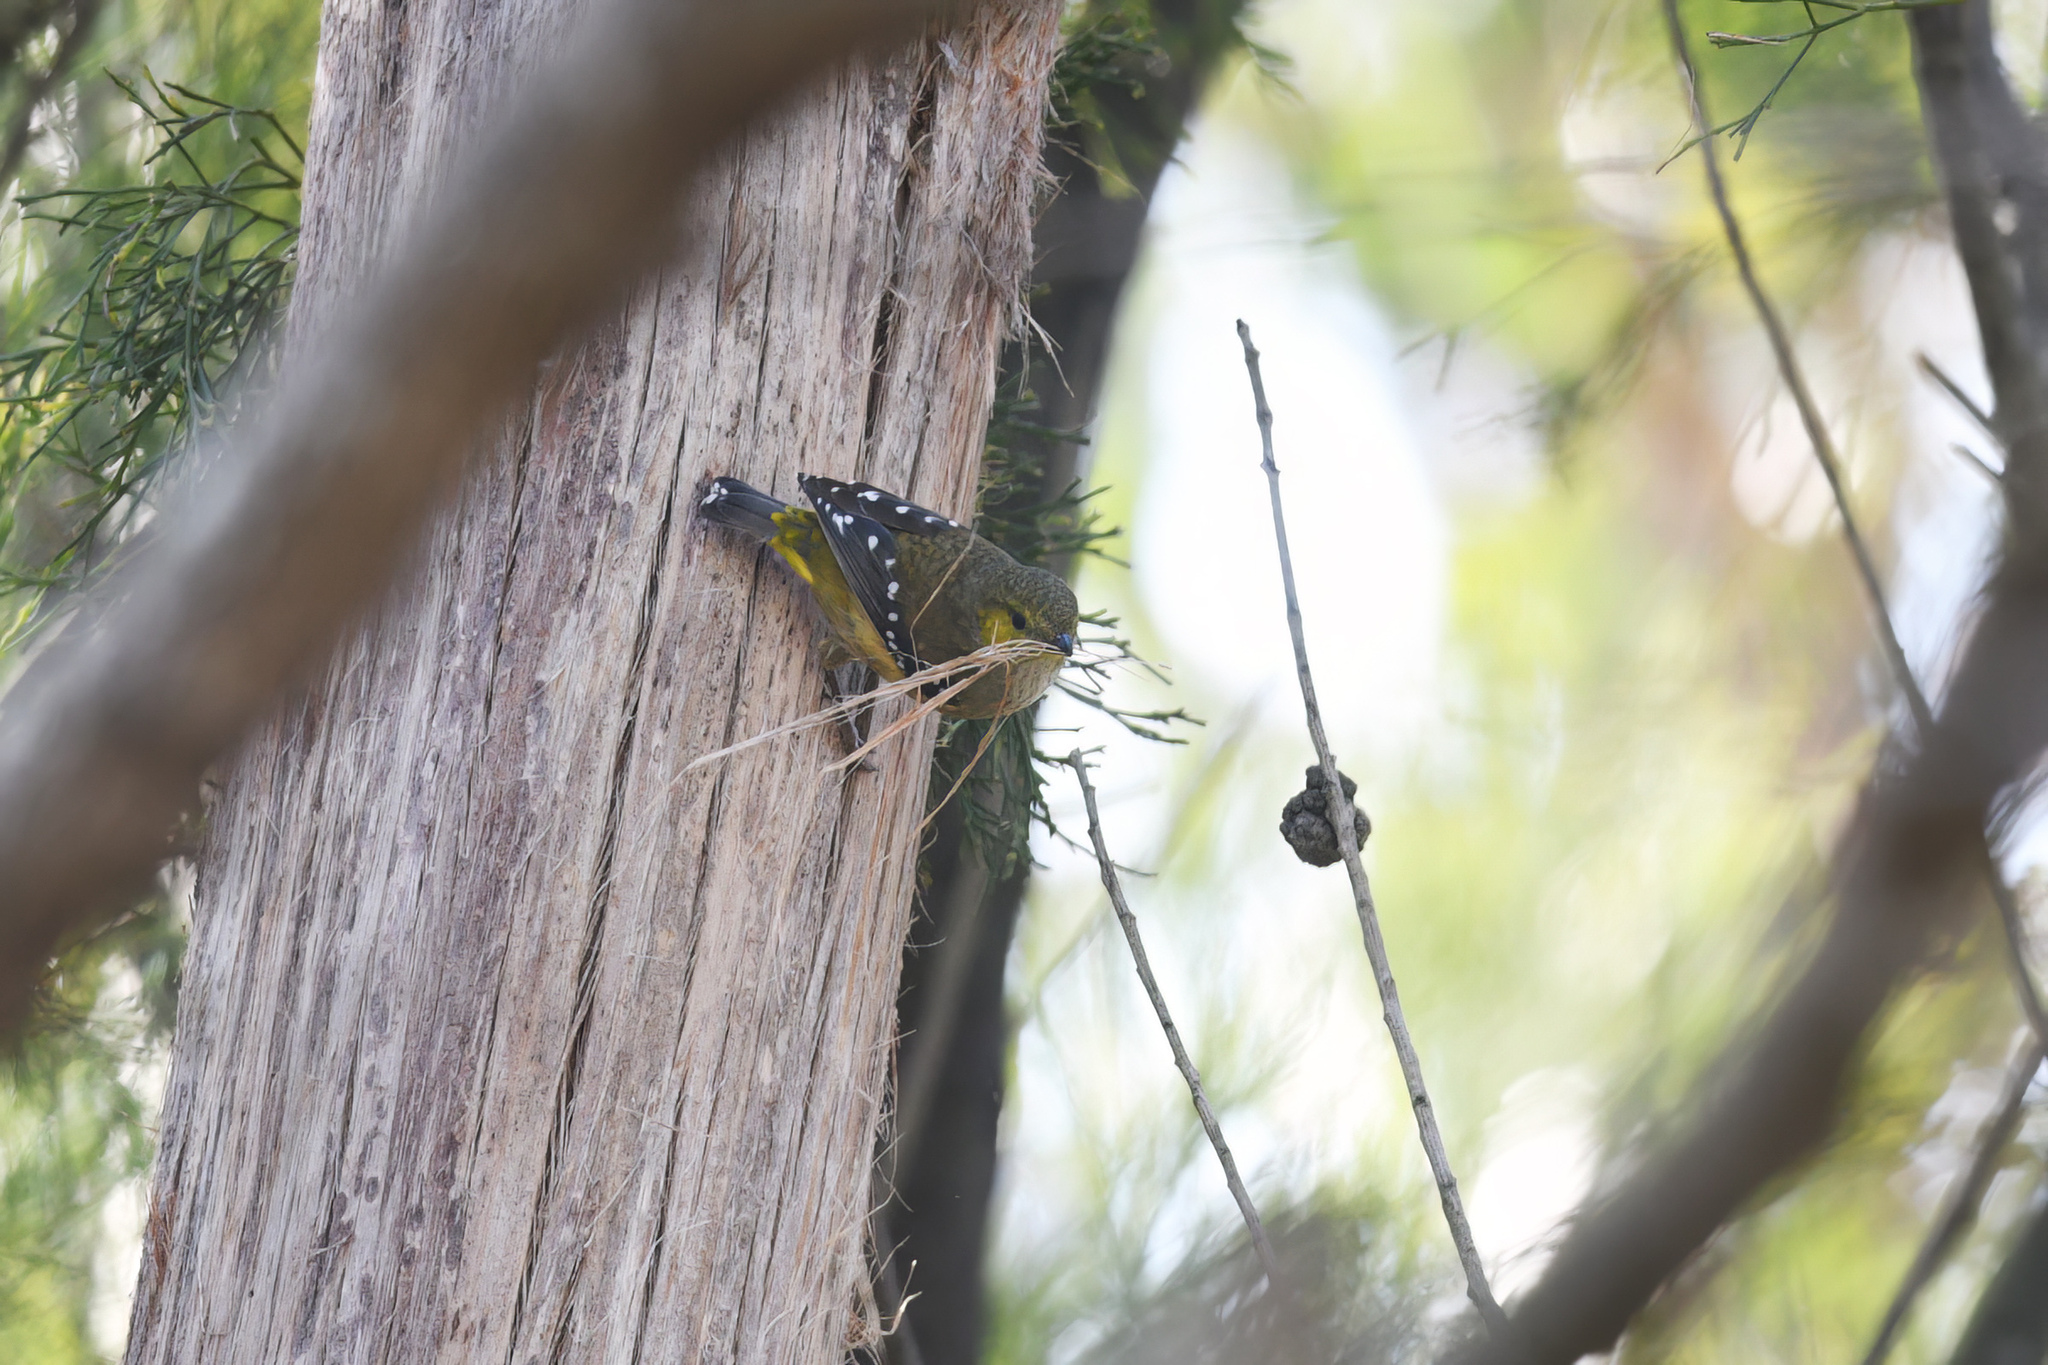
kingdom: Animalia
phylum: Chordata
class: Aves
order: Passeriformes
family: Pardalotidae
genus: Pardalotus
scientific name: Pardalotus quadragintus
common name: Forty-spotted pardalote
